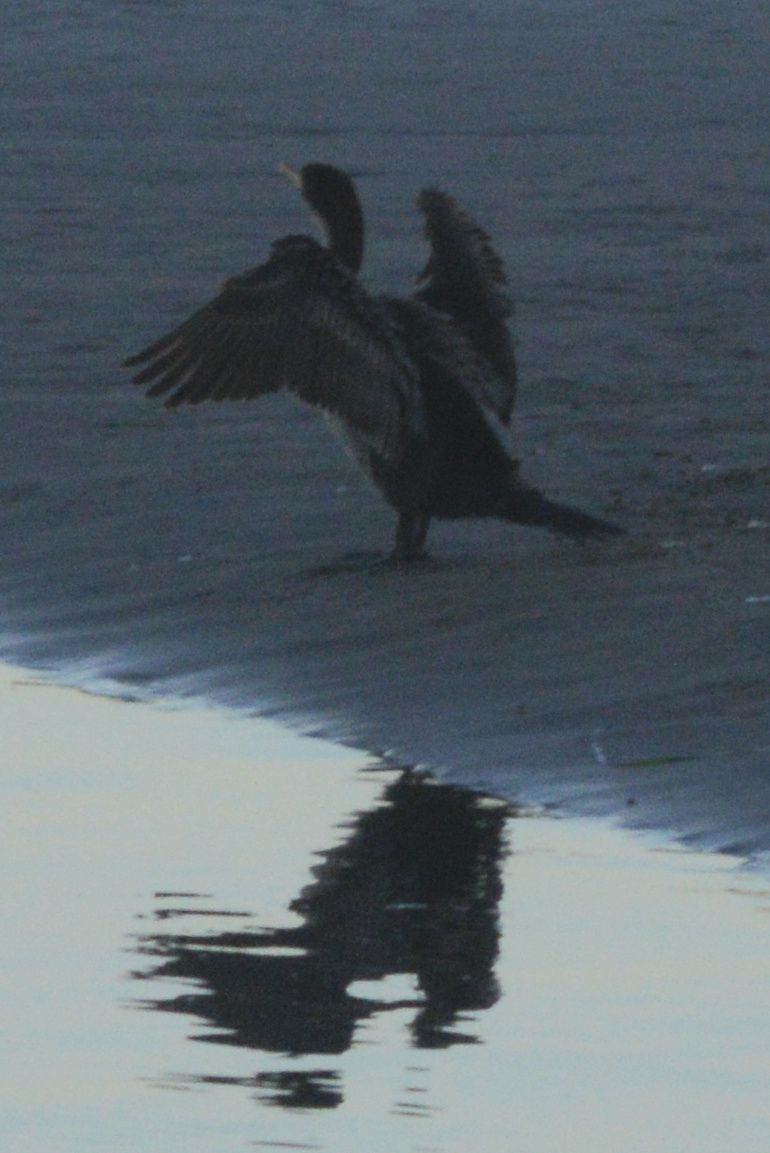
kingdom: Animalia
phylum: Chordata
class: Aves
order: Suliformes
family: Phalacrocoracidae
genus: Phalacrocorax
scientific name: Phalacrocorax auritus
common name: Double-crested cormorant
